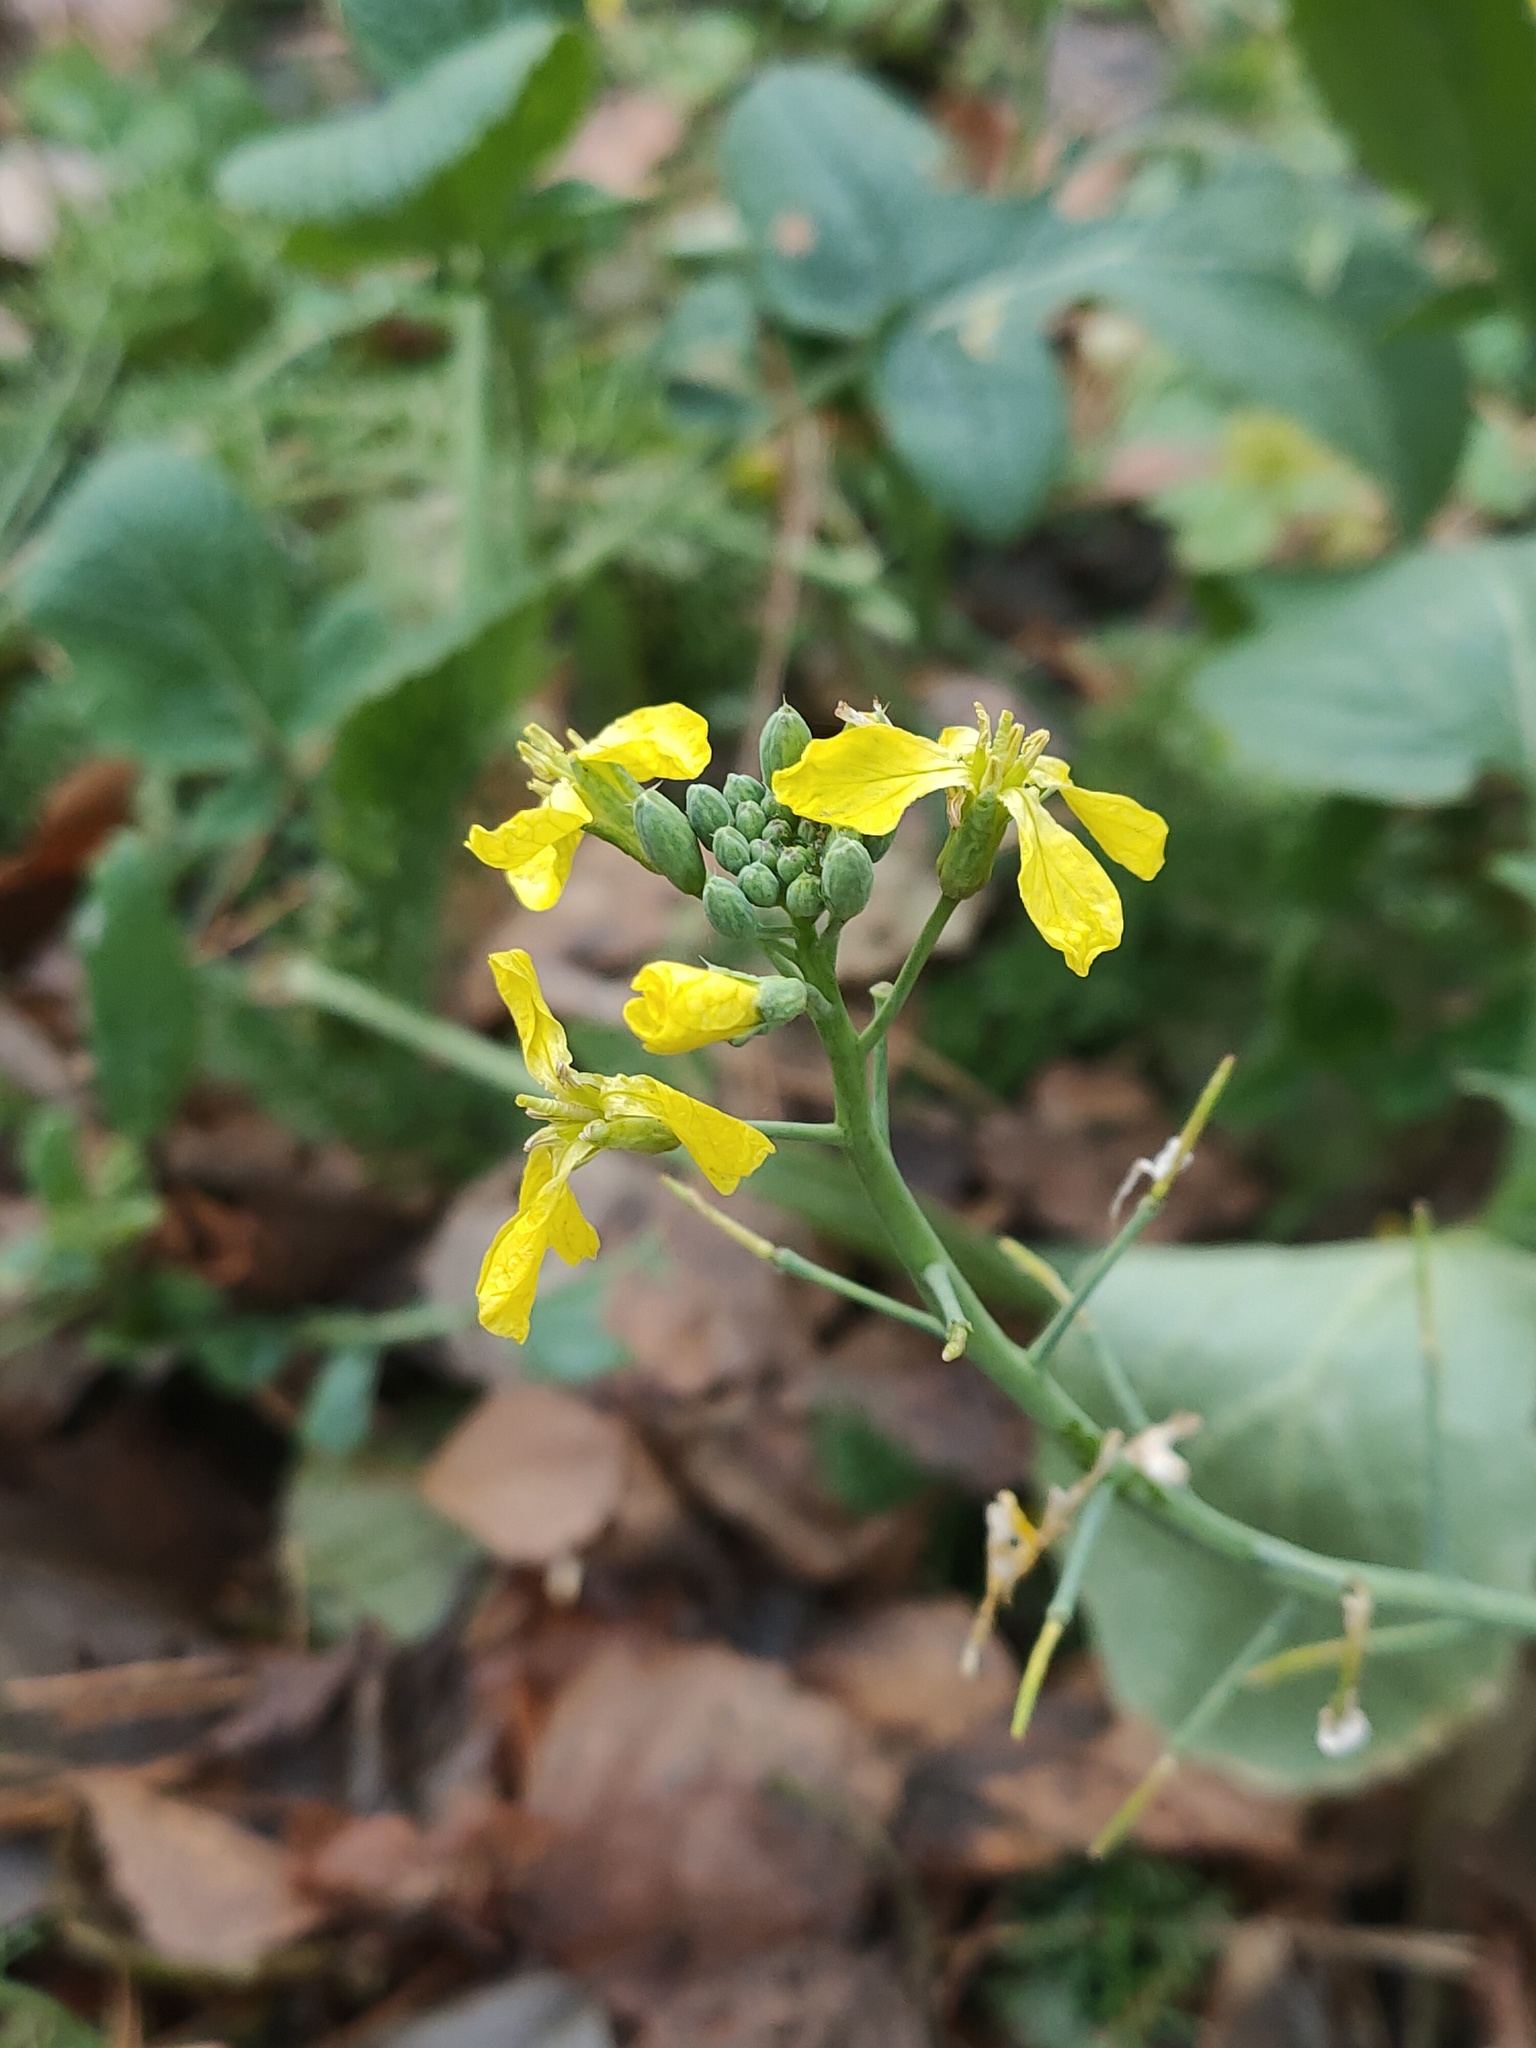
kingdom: Plantae
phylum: Tracheophyta
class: Magnoliopsida
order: Brassicales
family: Brassicaceae
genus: Raphanus
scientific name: Raphanus raphanistrum
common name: Wild radish
